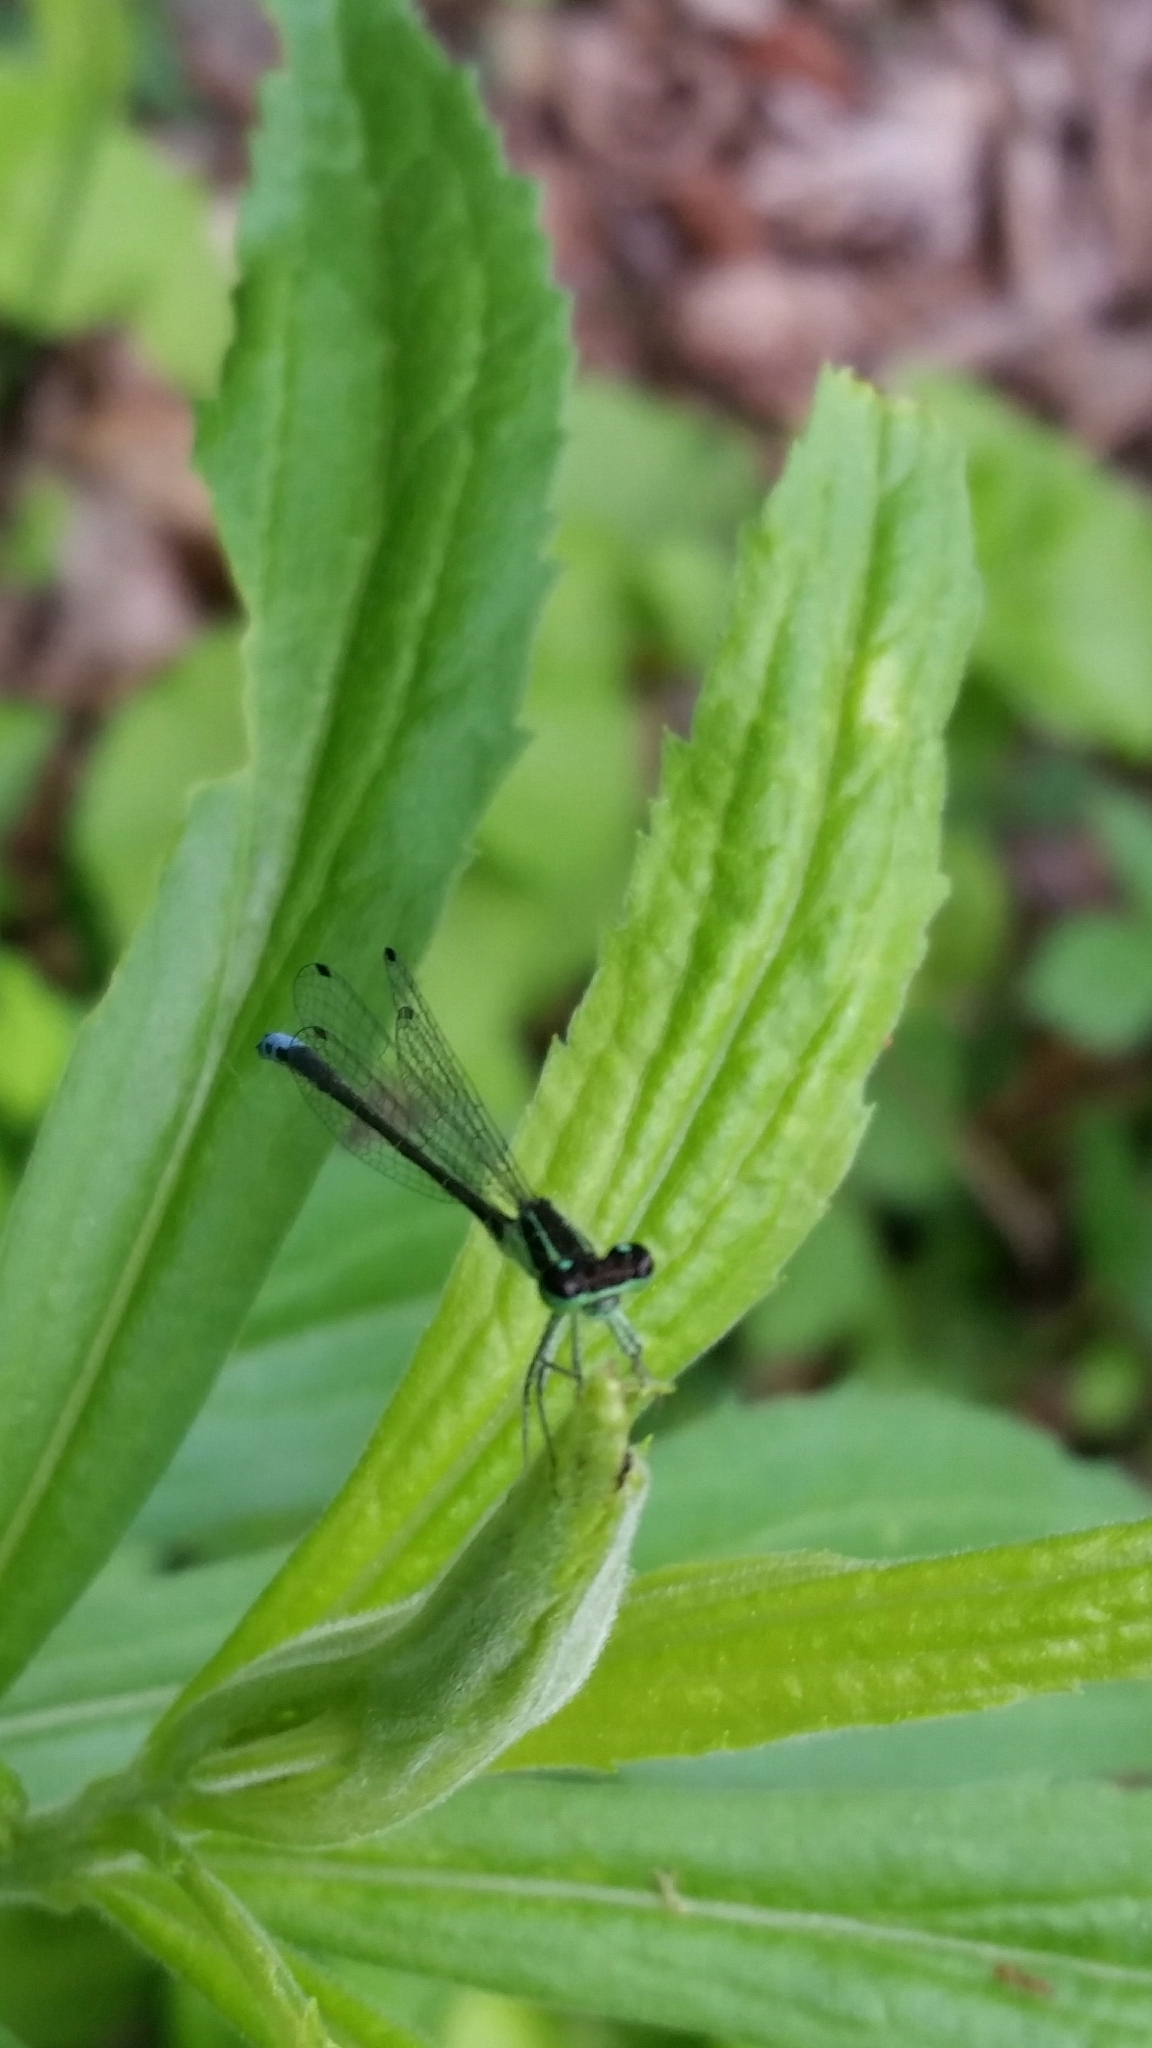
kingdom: Animalia
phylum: Arthropoda
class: Insecta
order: Odonata
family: Coenagrionidae
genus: Ischnura
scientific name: Ischnura verticalis
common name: Eastern forktail
